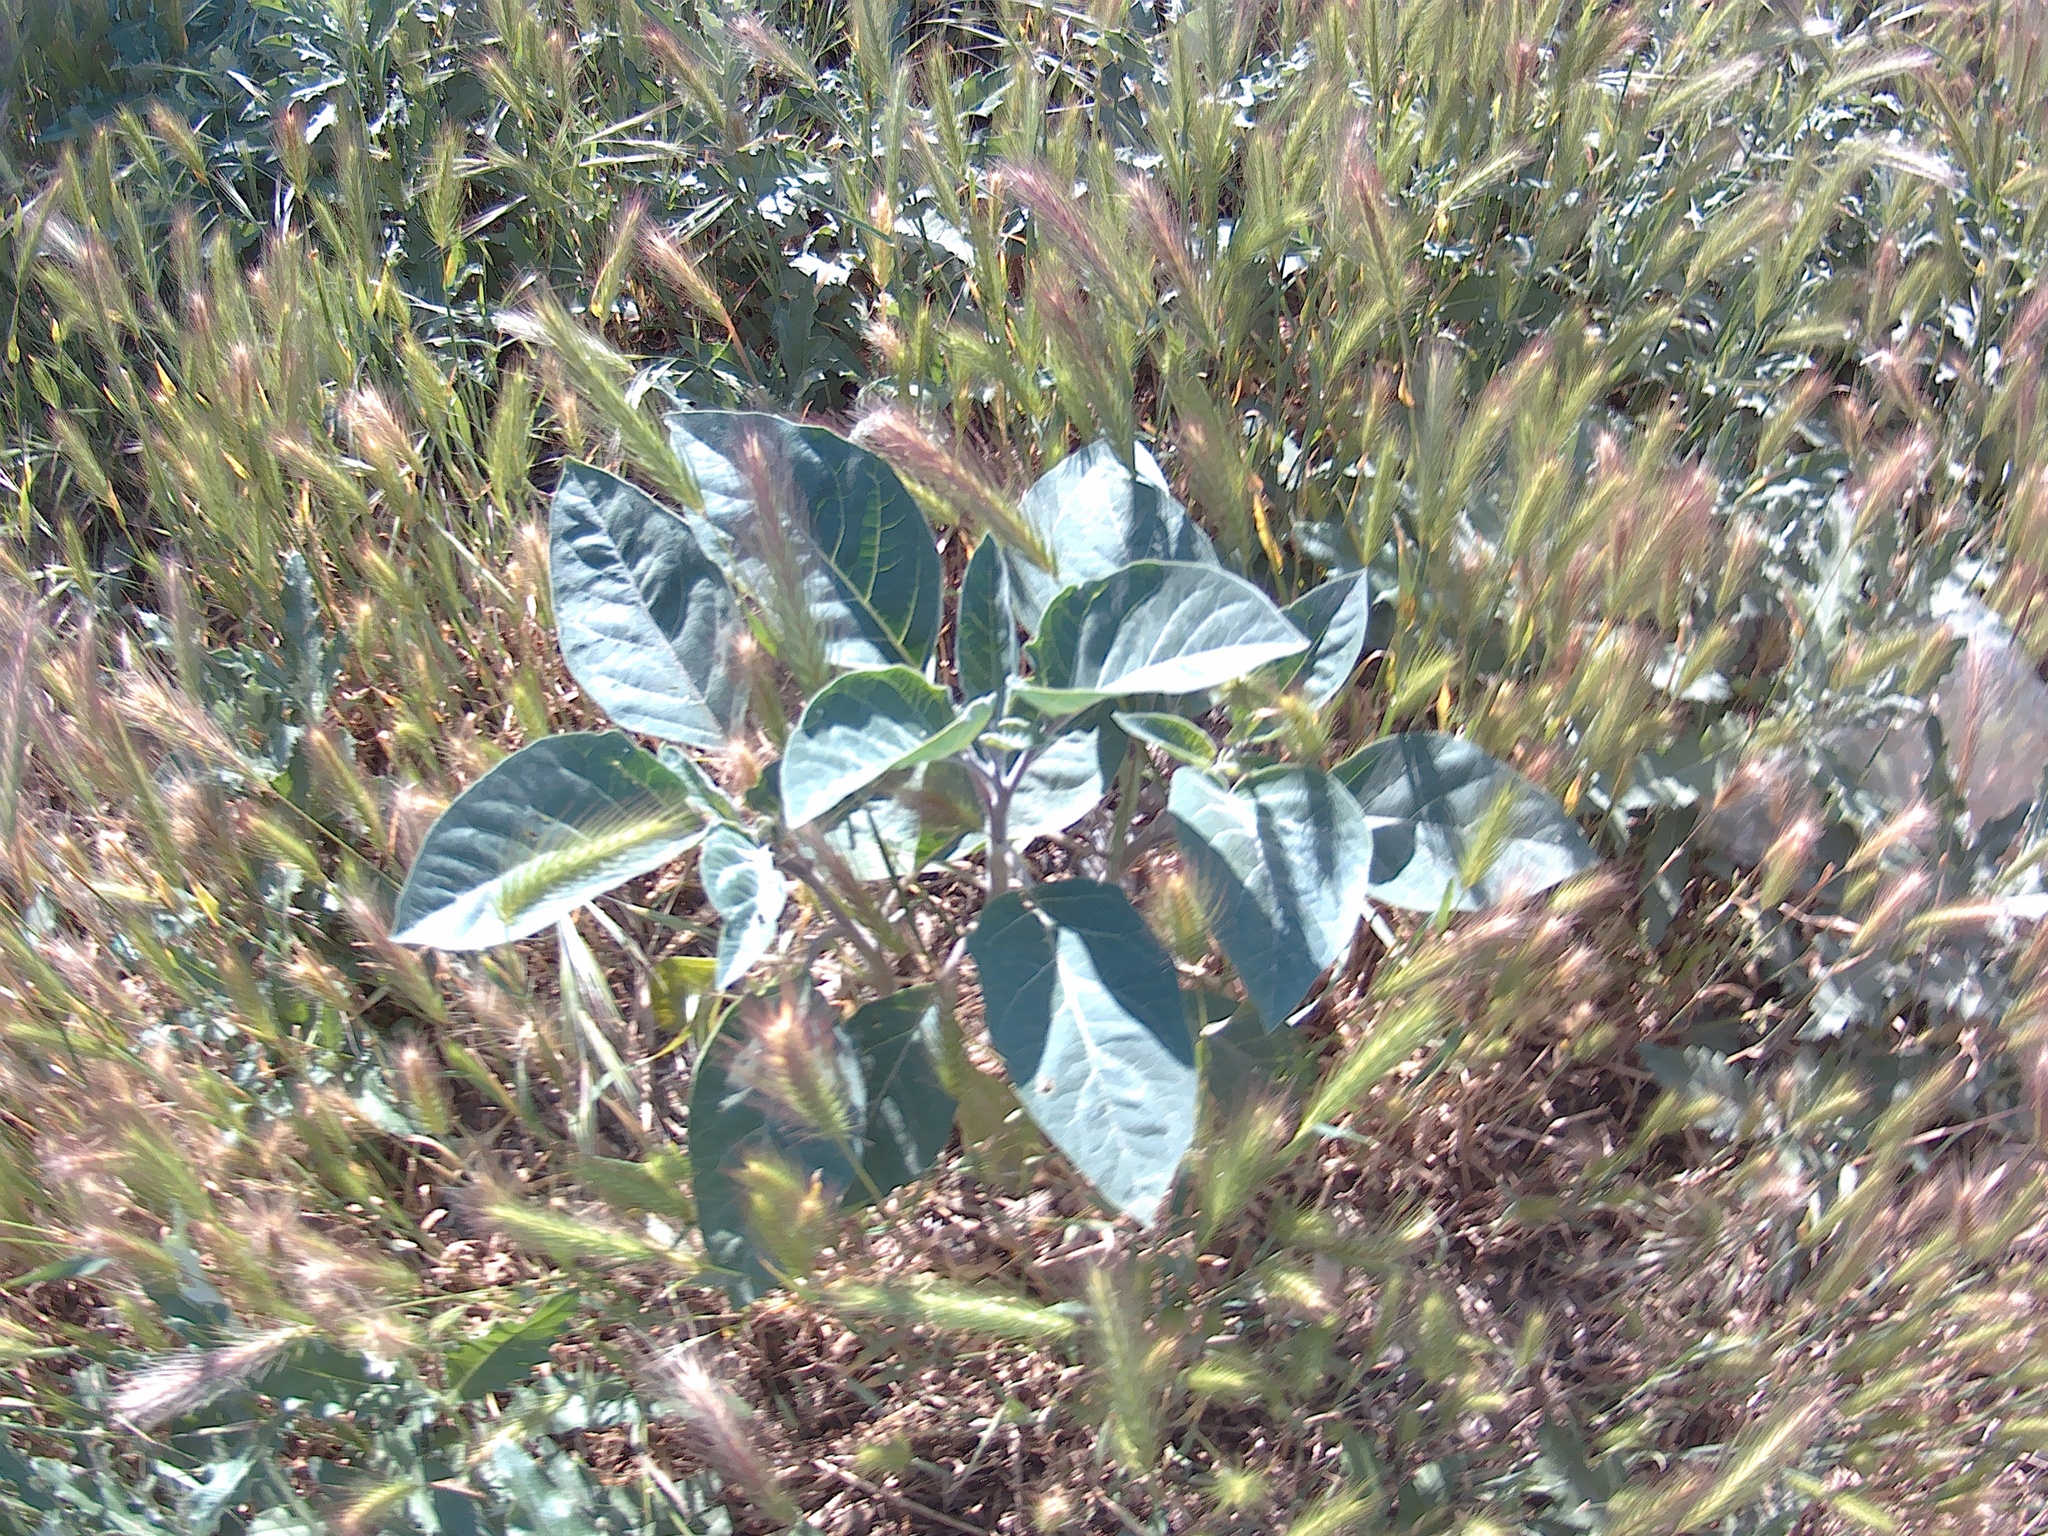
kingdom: Plantae
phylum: Tracheophyta
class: Magnoliopsida
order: Solanales
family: Solanaceae
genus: Datura
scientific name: Datura innoxia
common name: Downy thorn-apple
